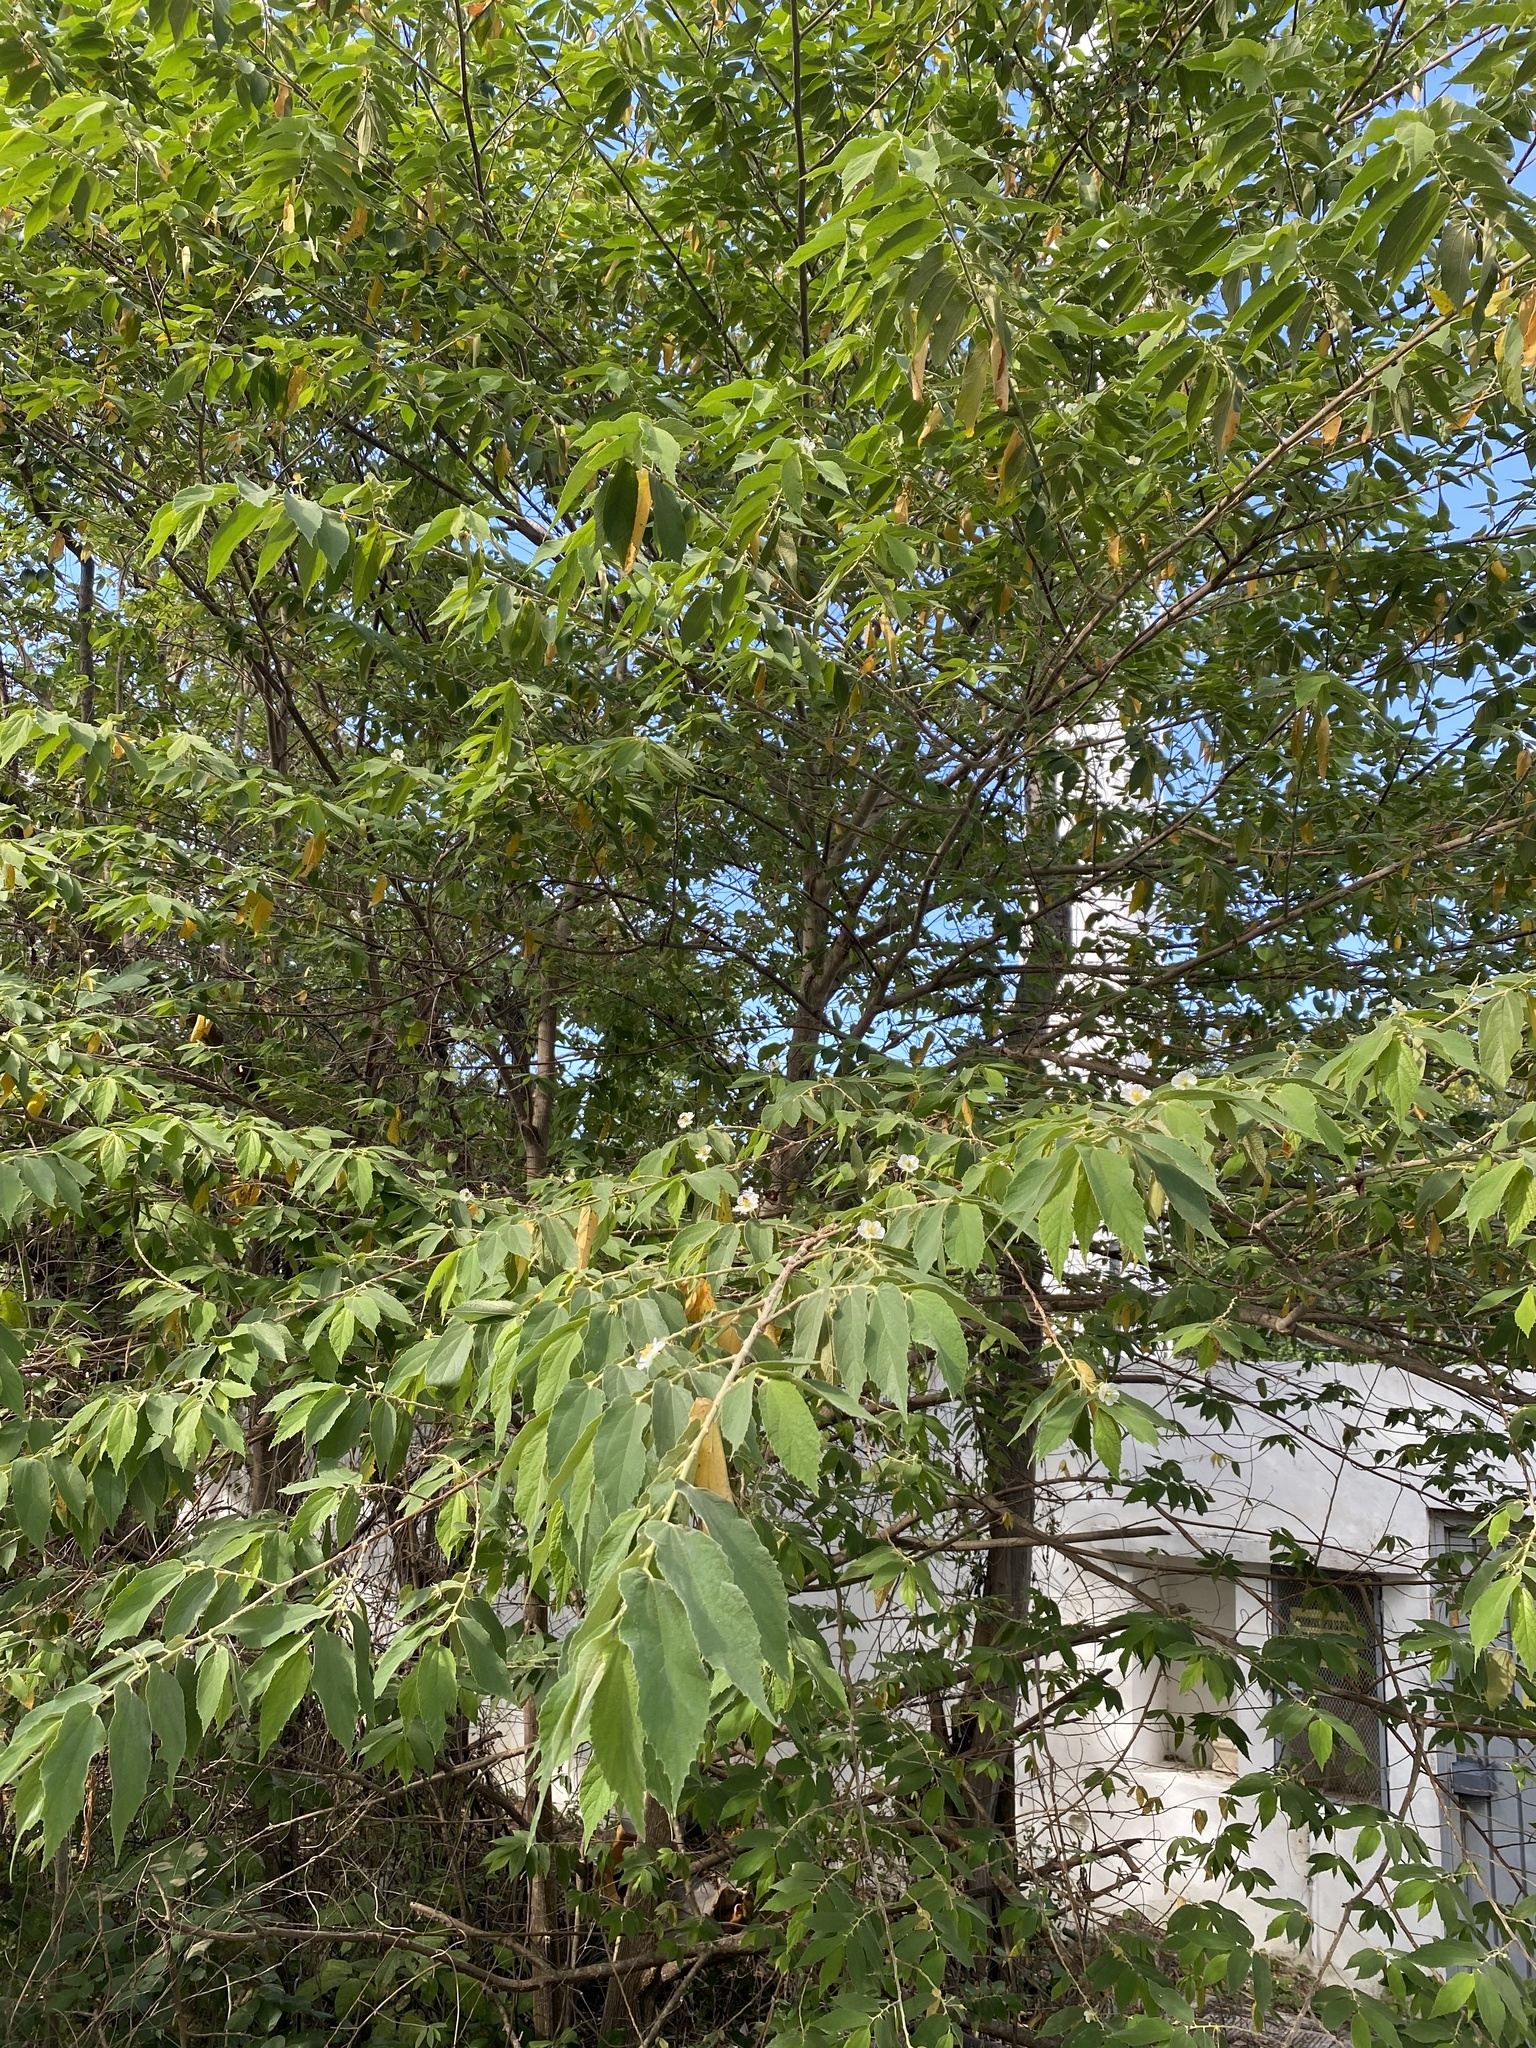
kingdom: Plantae
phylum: Tracheophyta
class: Magnoliopsida
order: Malvales
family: Muntingiaceae
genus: Muntingia
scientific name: Muntingia calabura
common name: Strawberrytree
